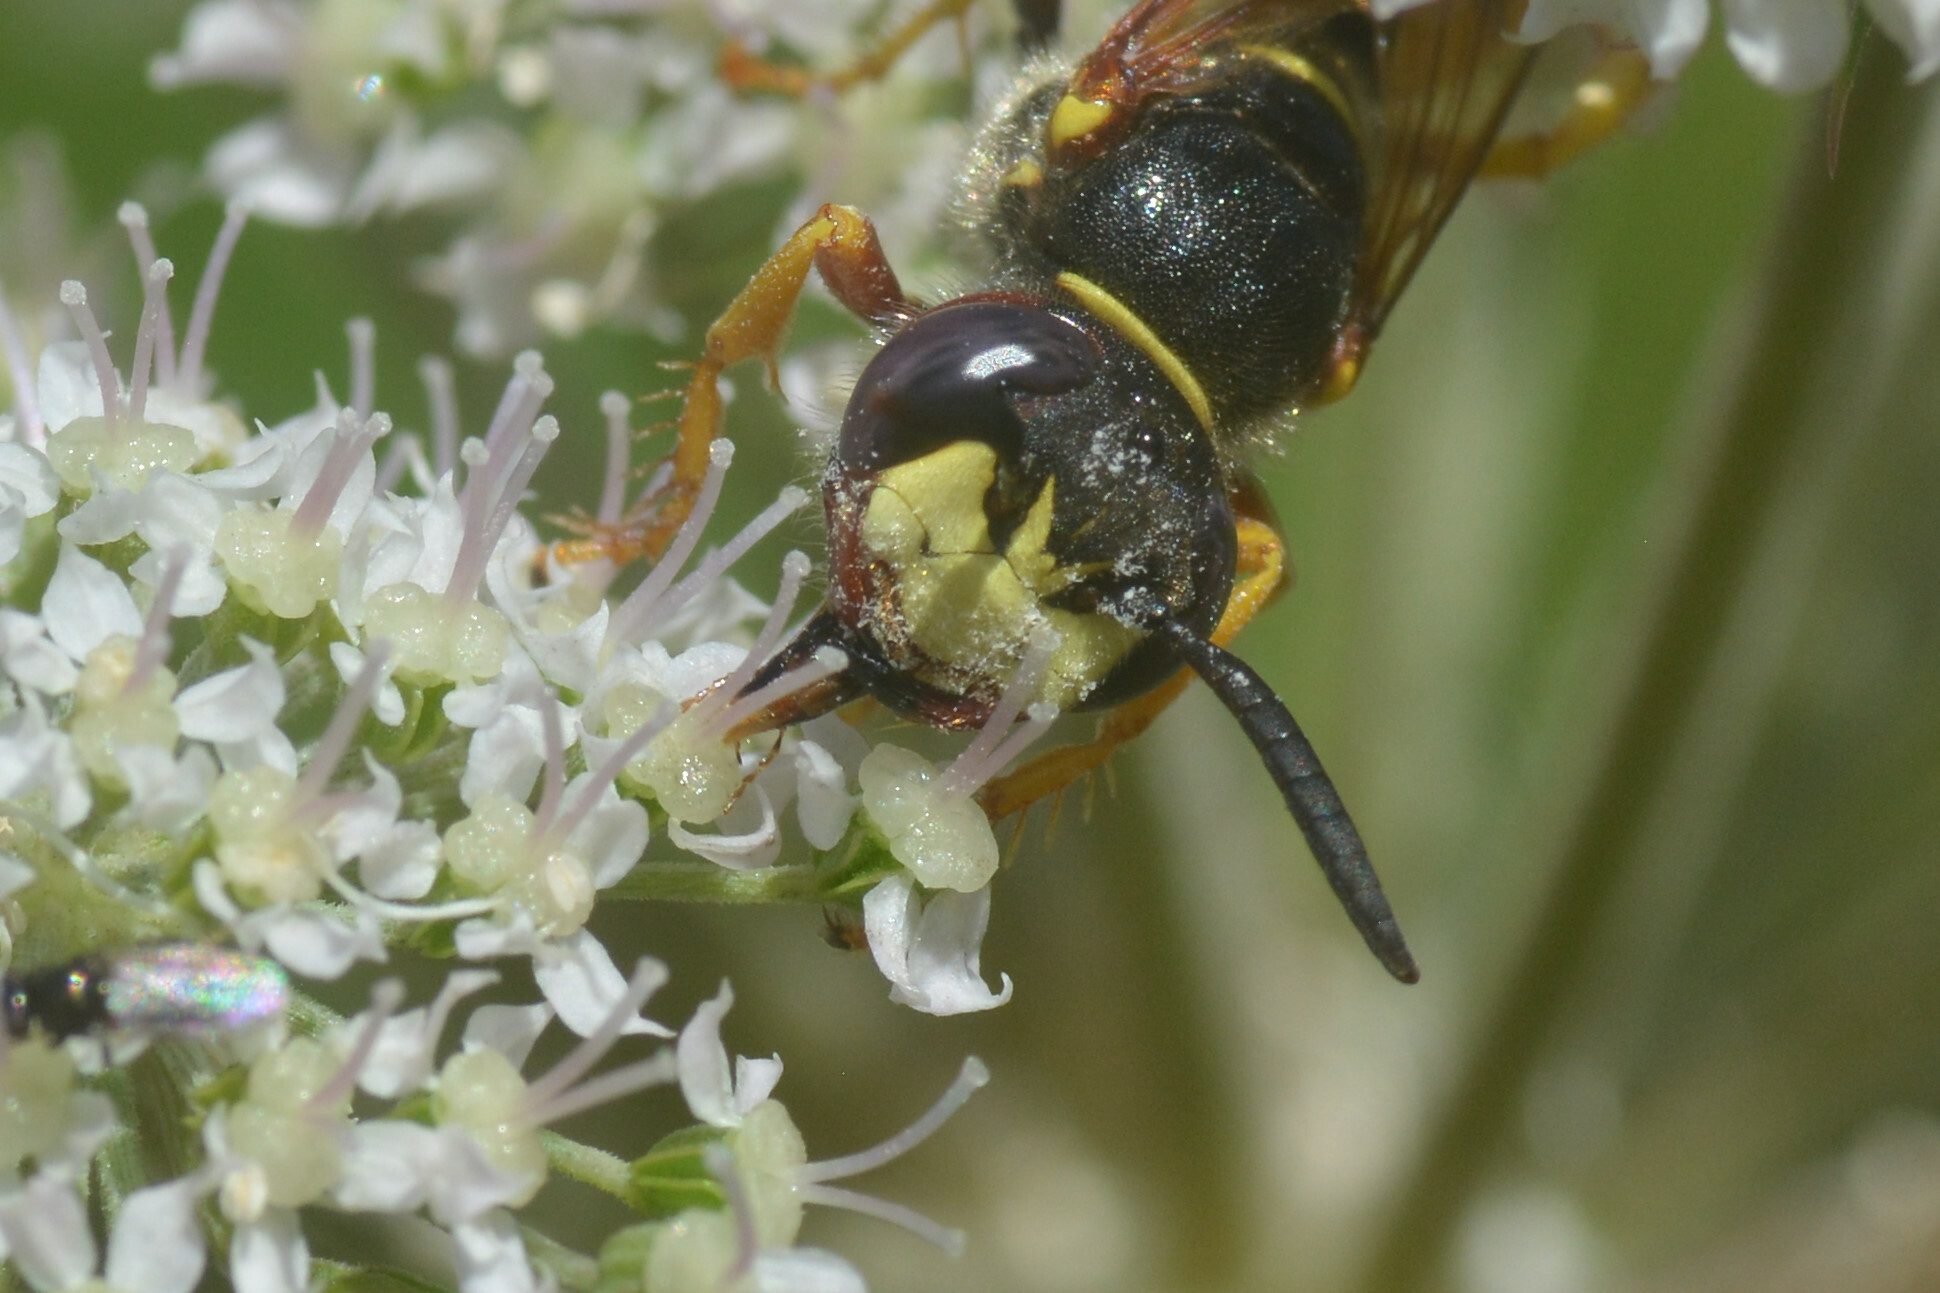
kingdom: Animalia
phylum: Arthropoda
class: Insecta
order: Hymenoptera
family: Crabronidae
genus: Philanthus
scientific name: Philanthus triangulum
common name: Bee wolf
